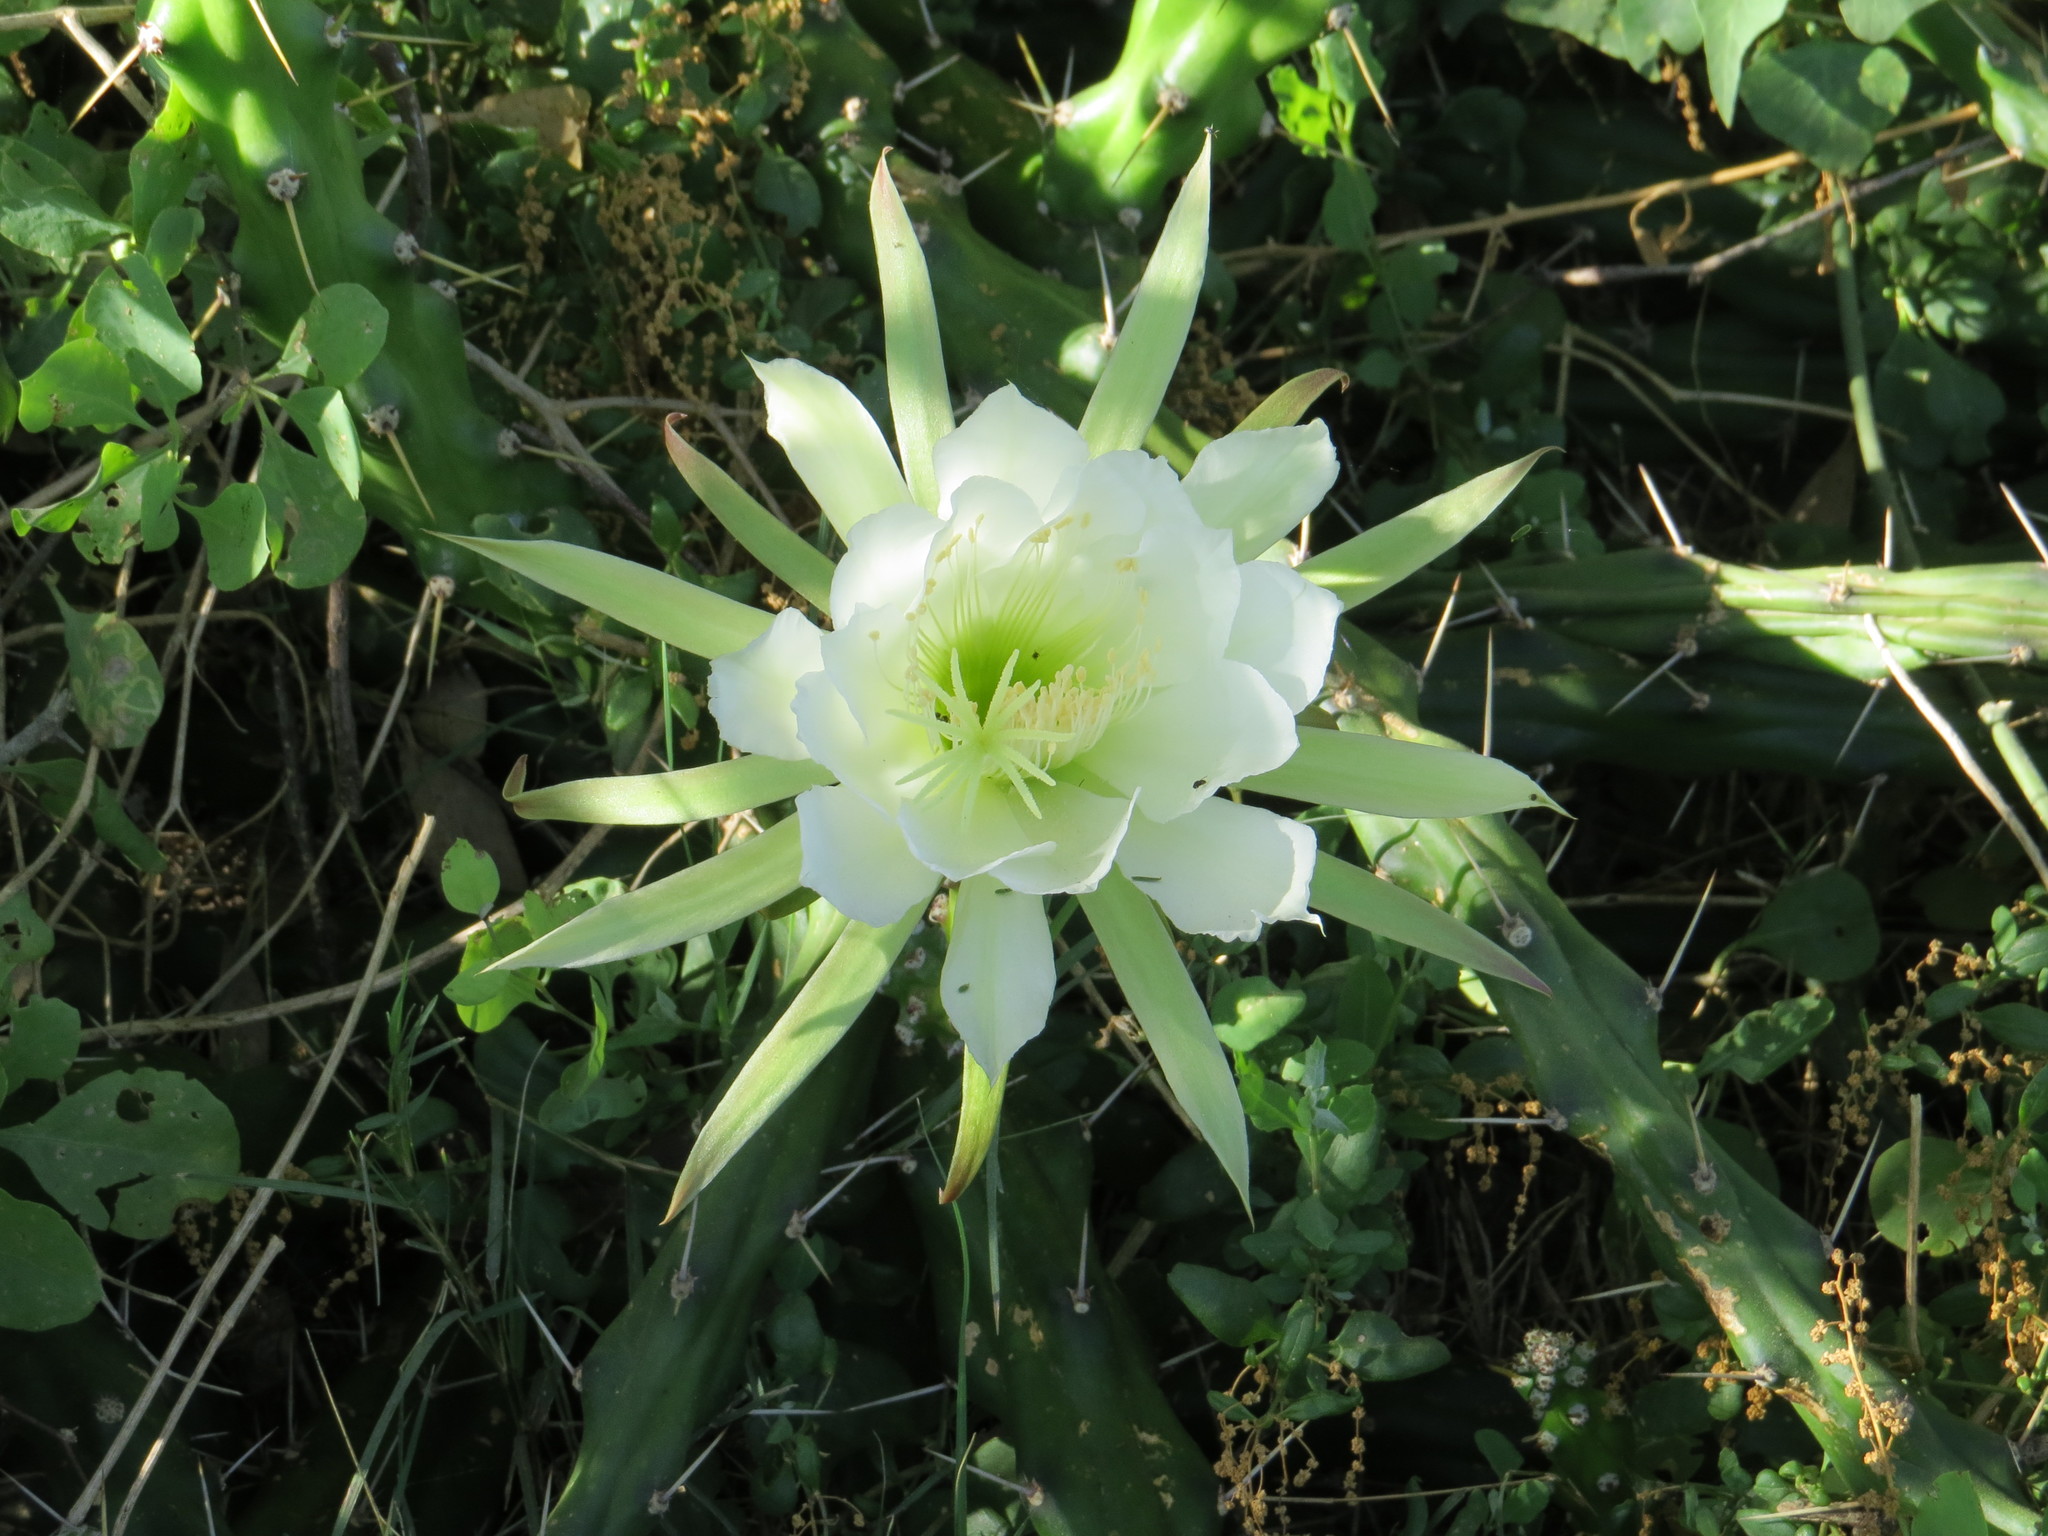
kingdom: Plantae
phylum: Tracheophyta
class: Magnoliopsida
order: Caryophyllales
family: Cactaceae
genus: Harrisia
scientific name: Harrisia martinii
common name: Moon cactus
